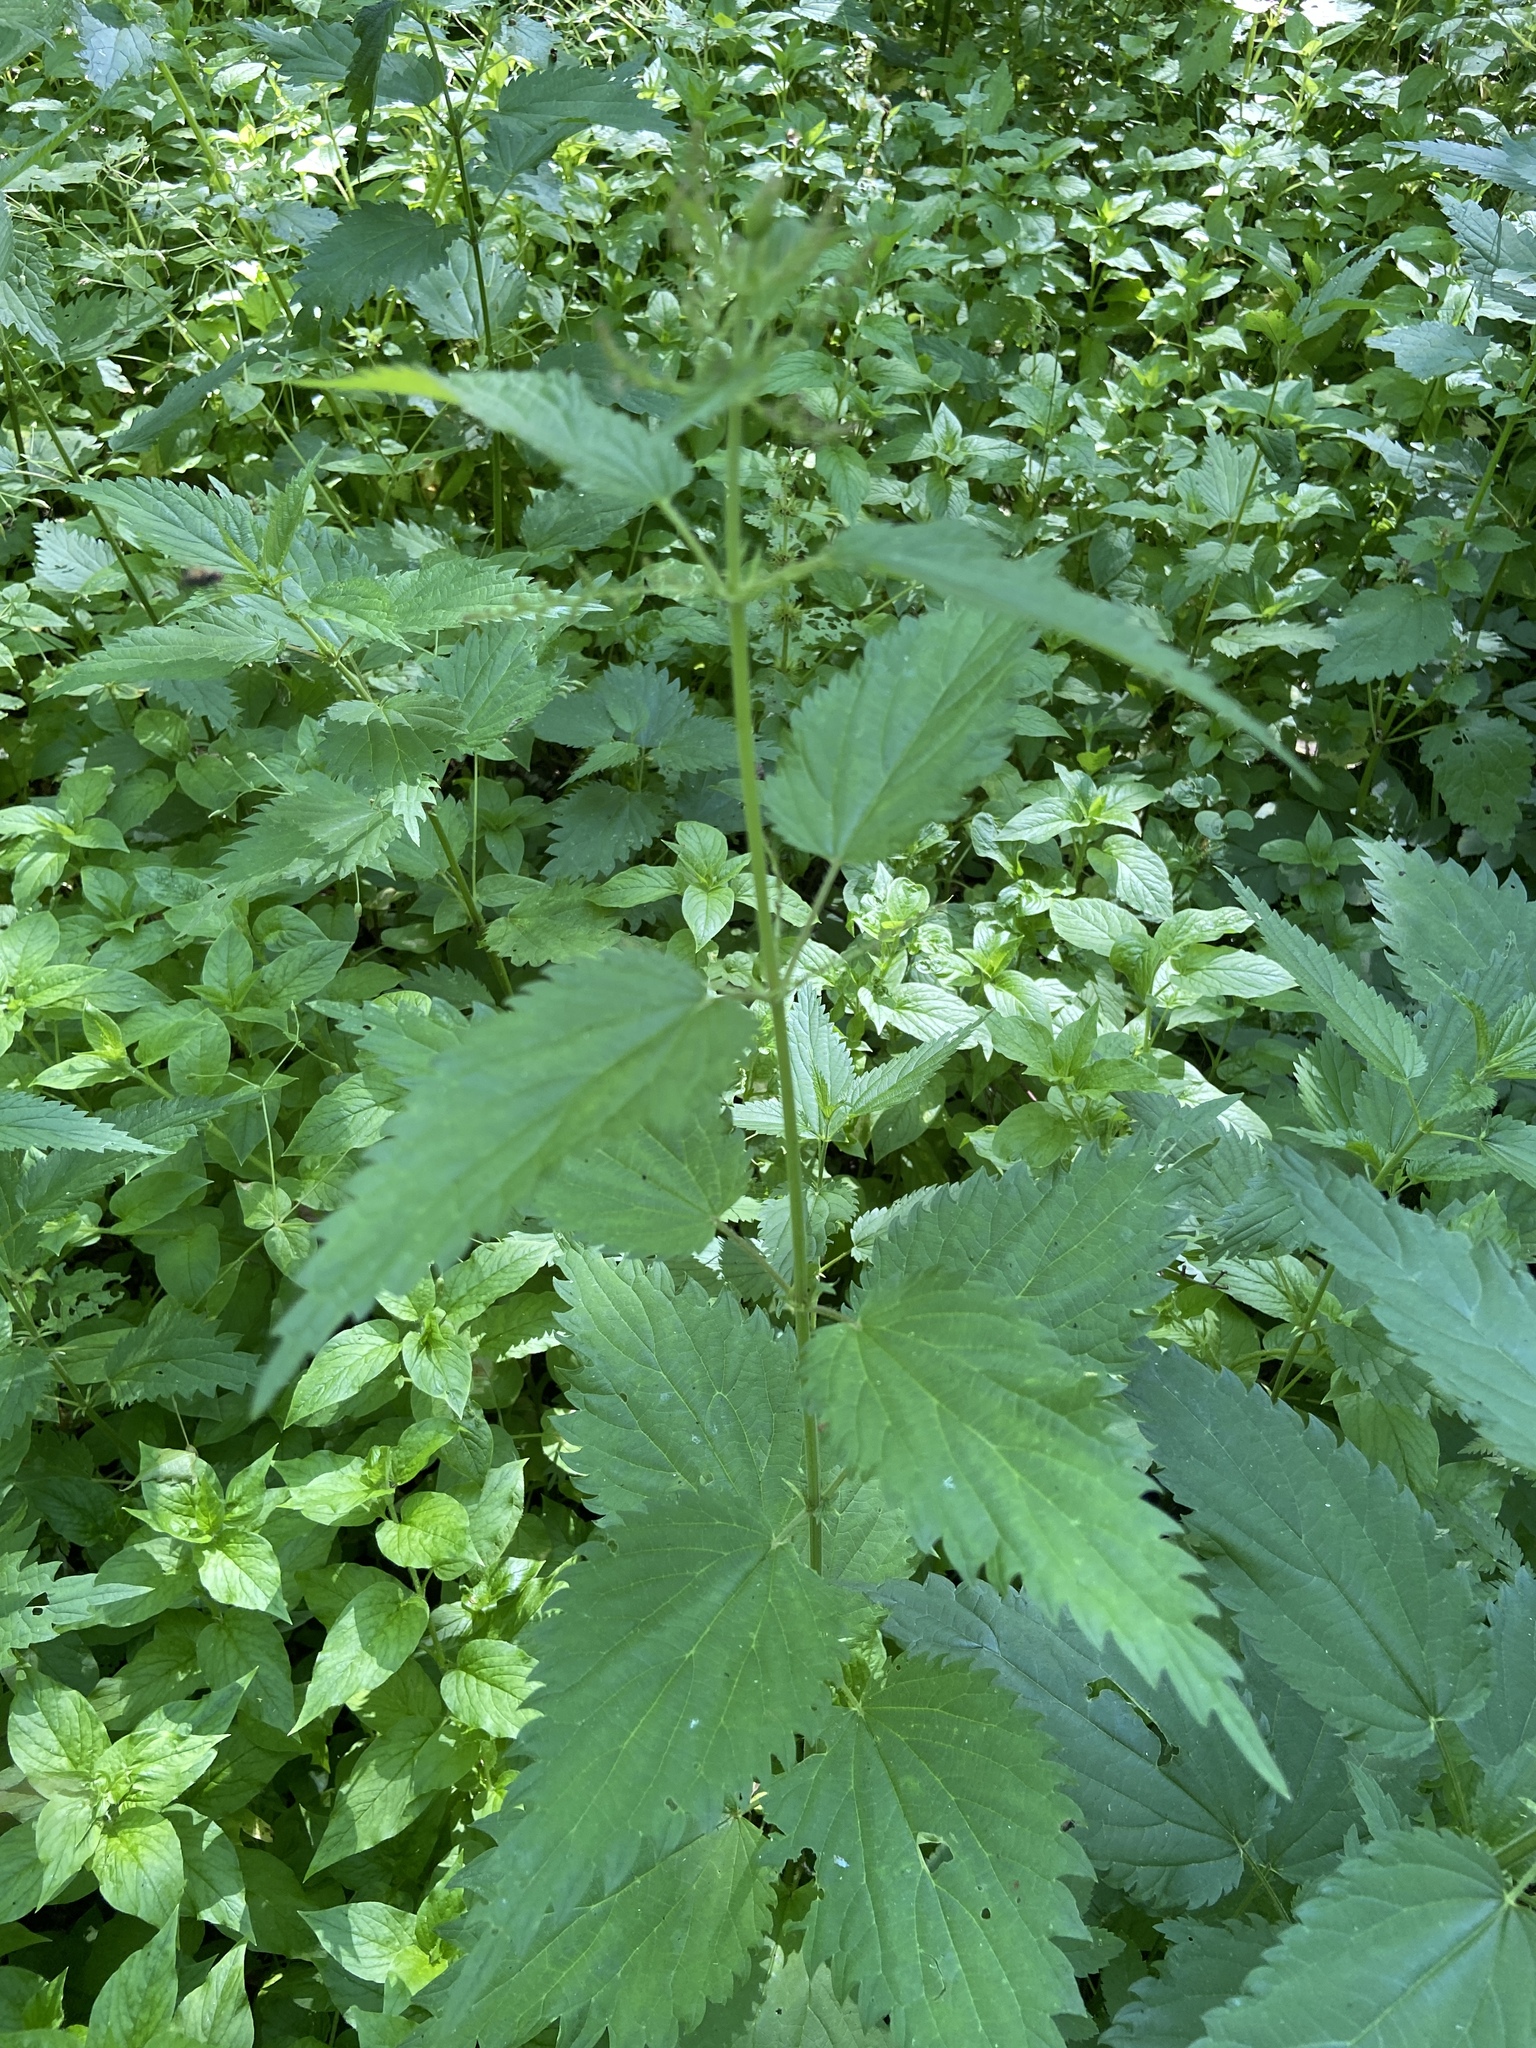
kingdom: Plantae
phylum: Tracheophyta
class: Magnoliopsida
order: Rosales
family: Urticaceae
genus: Urtica
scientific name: Urtica dioica
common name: Common nettle
